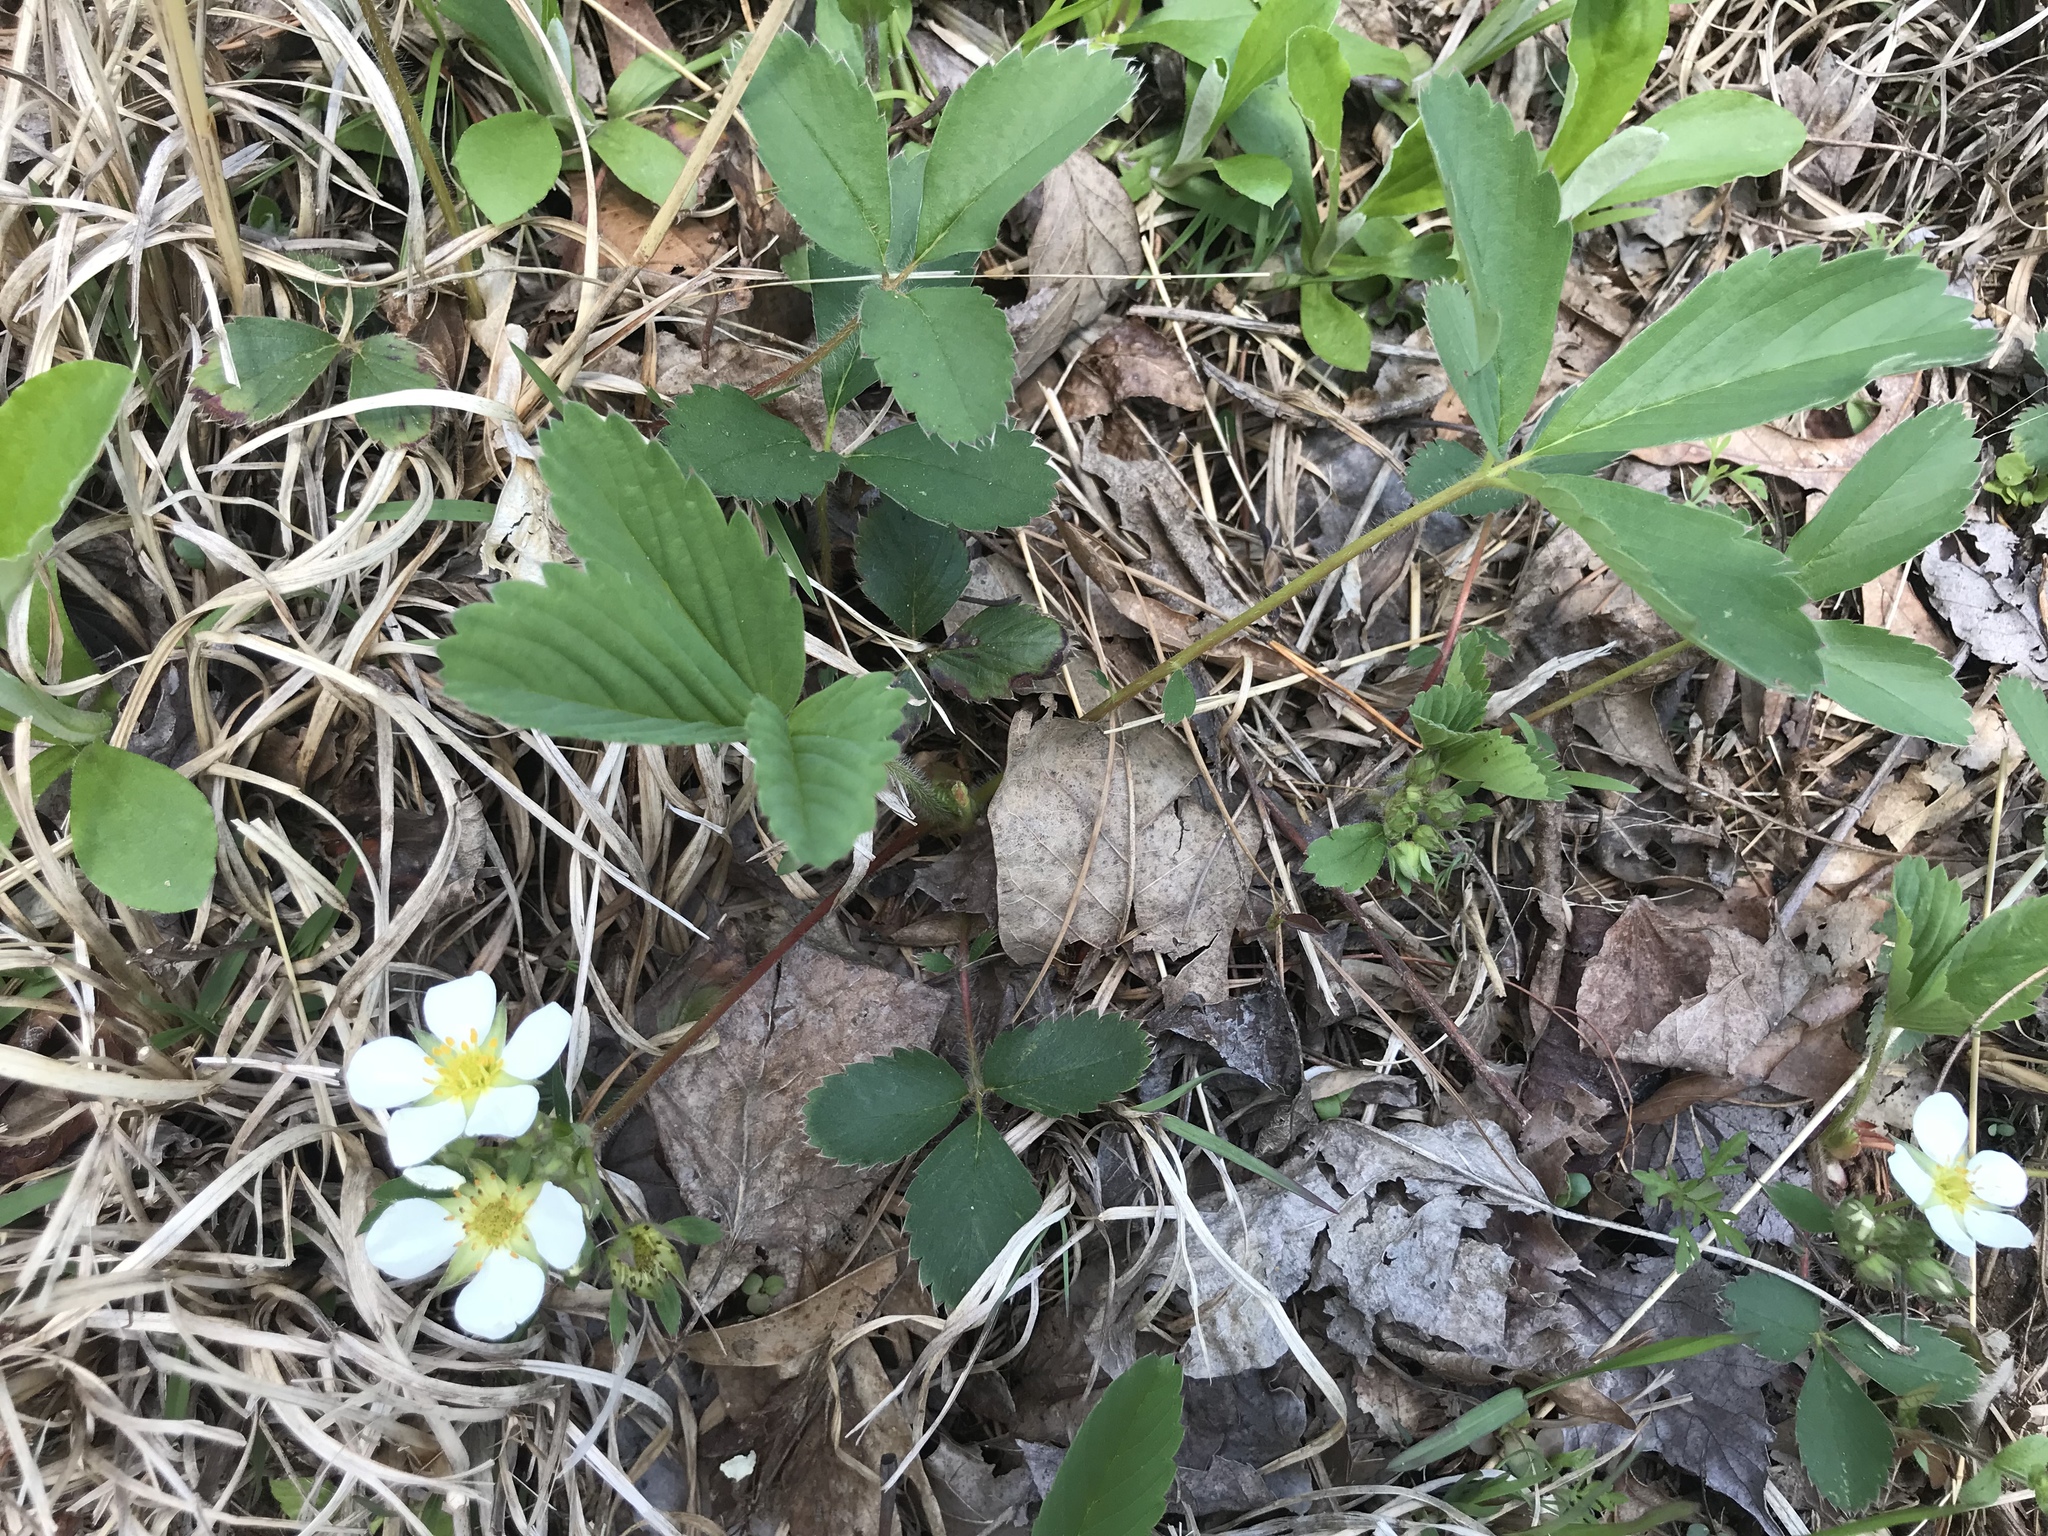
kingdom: Plantae
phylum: Tracheophyta
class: Magnoliopsida
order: Rosales
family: Rosaceae
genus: Fragaria
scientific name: Fragaria virginiana
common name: Thickleaved wild strawberry
